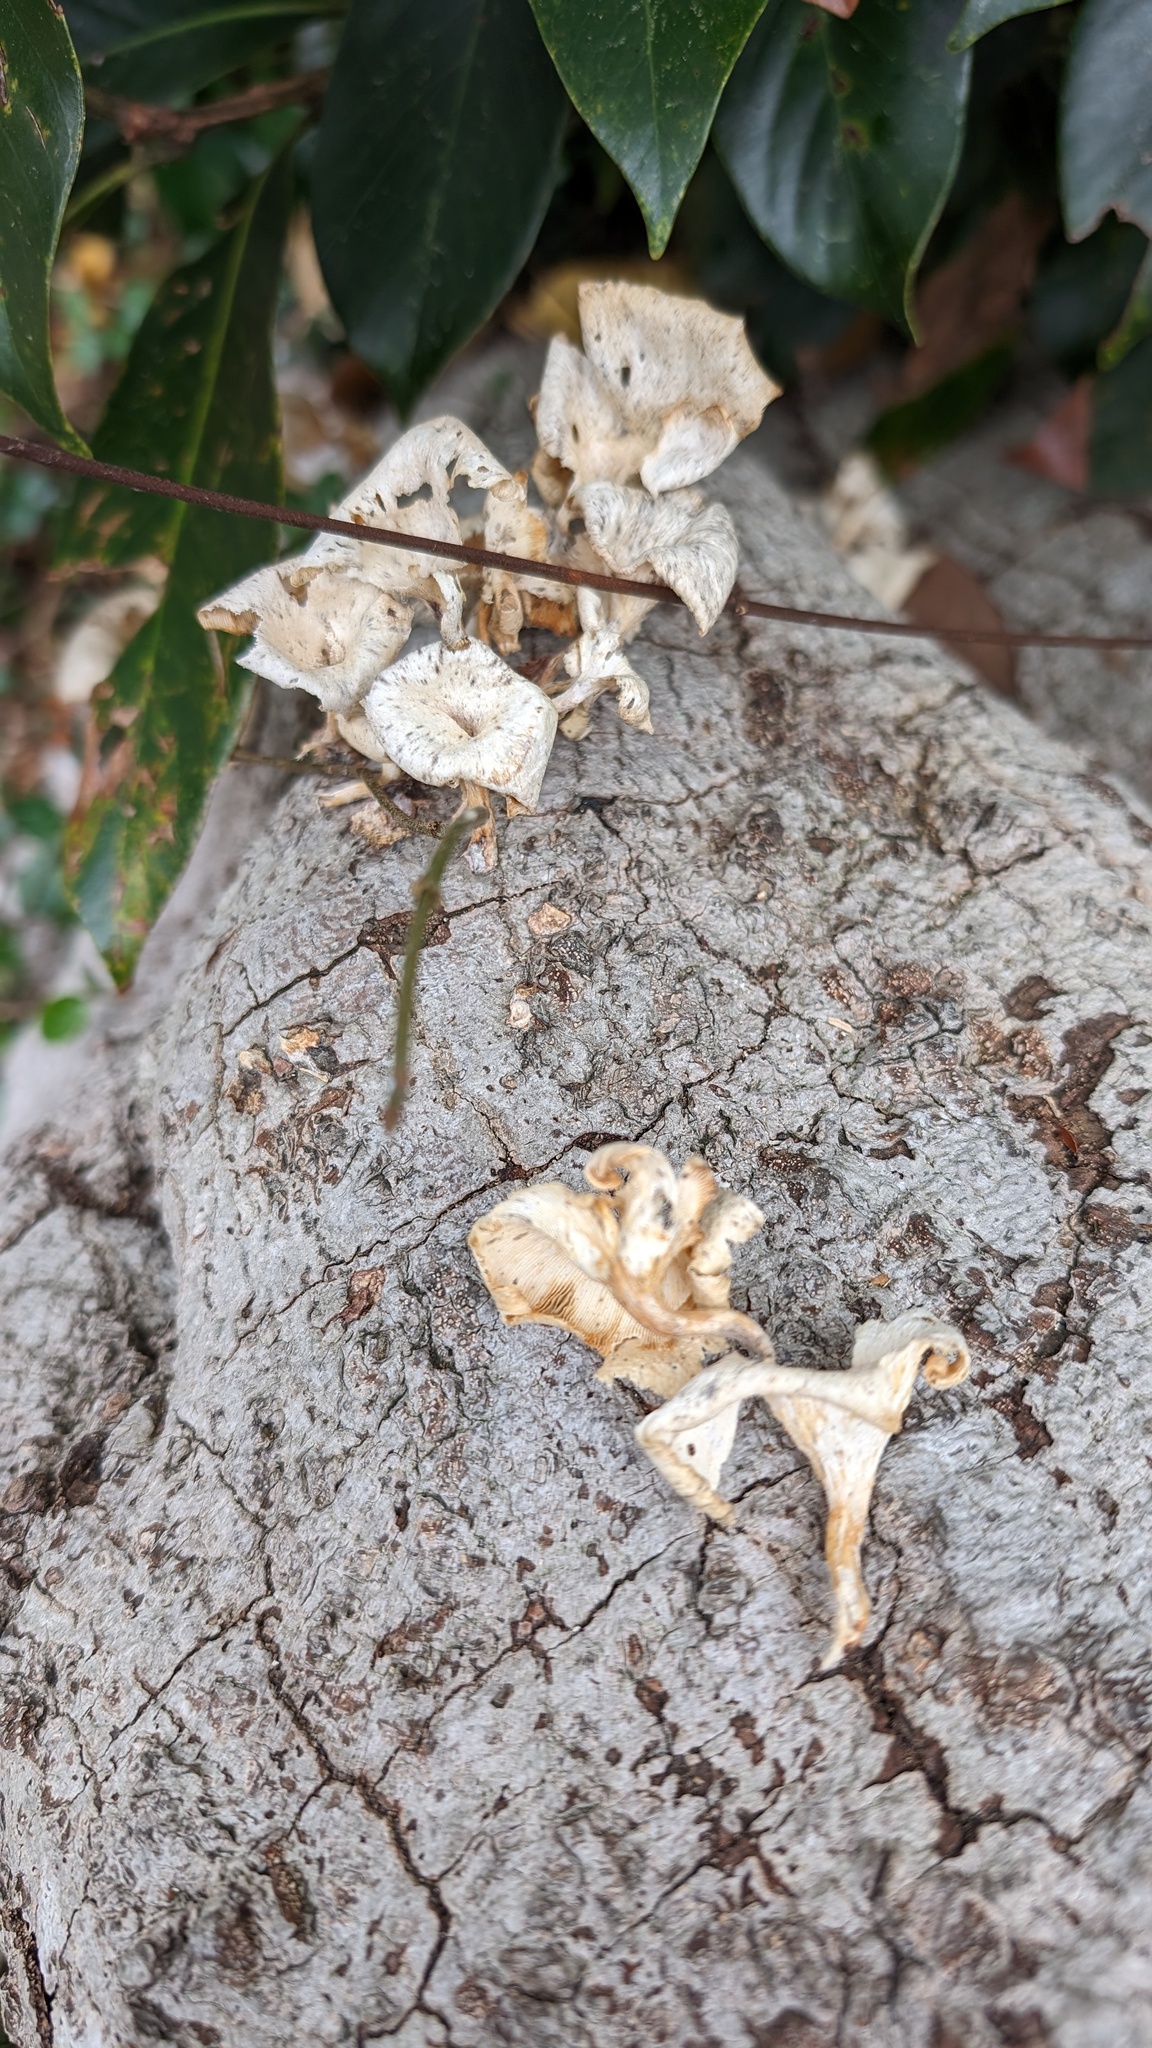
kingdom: Fungi
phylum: Basidiomycota
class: Agaricomycetes
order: Polyporales
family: Polyporaceae
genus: Lentinus
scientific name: Lentinus squarrosulus
